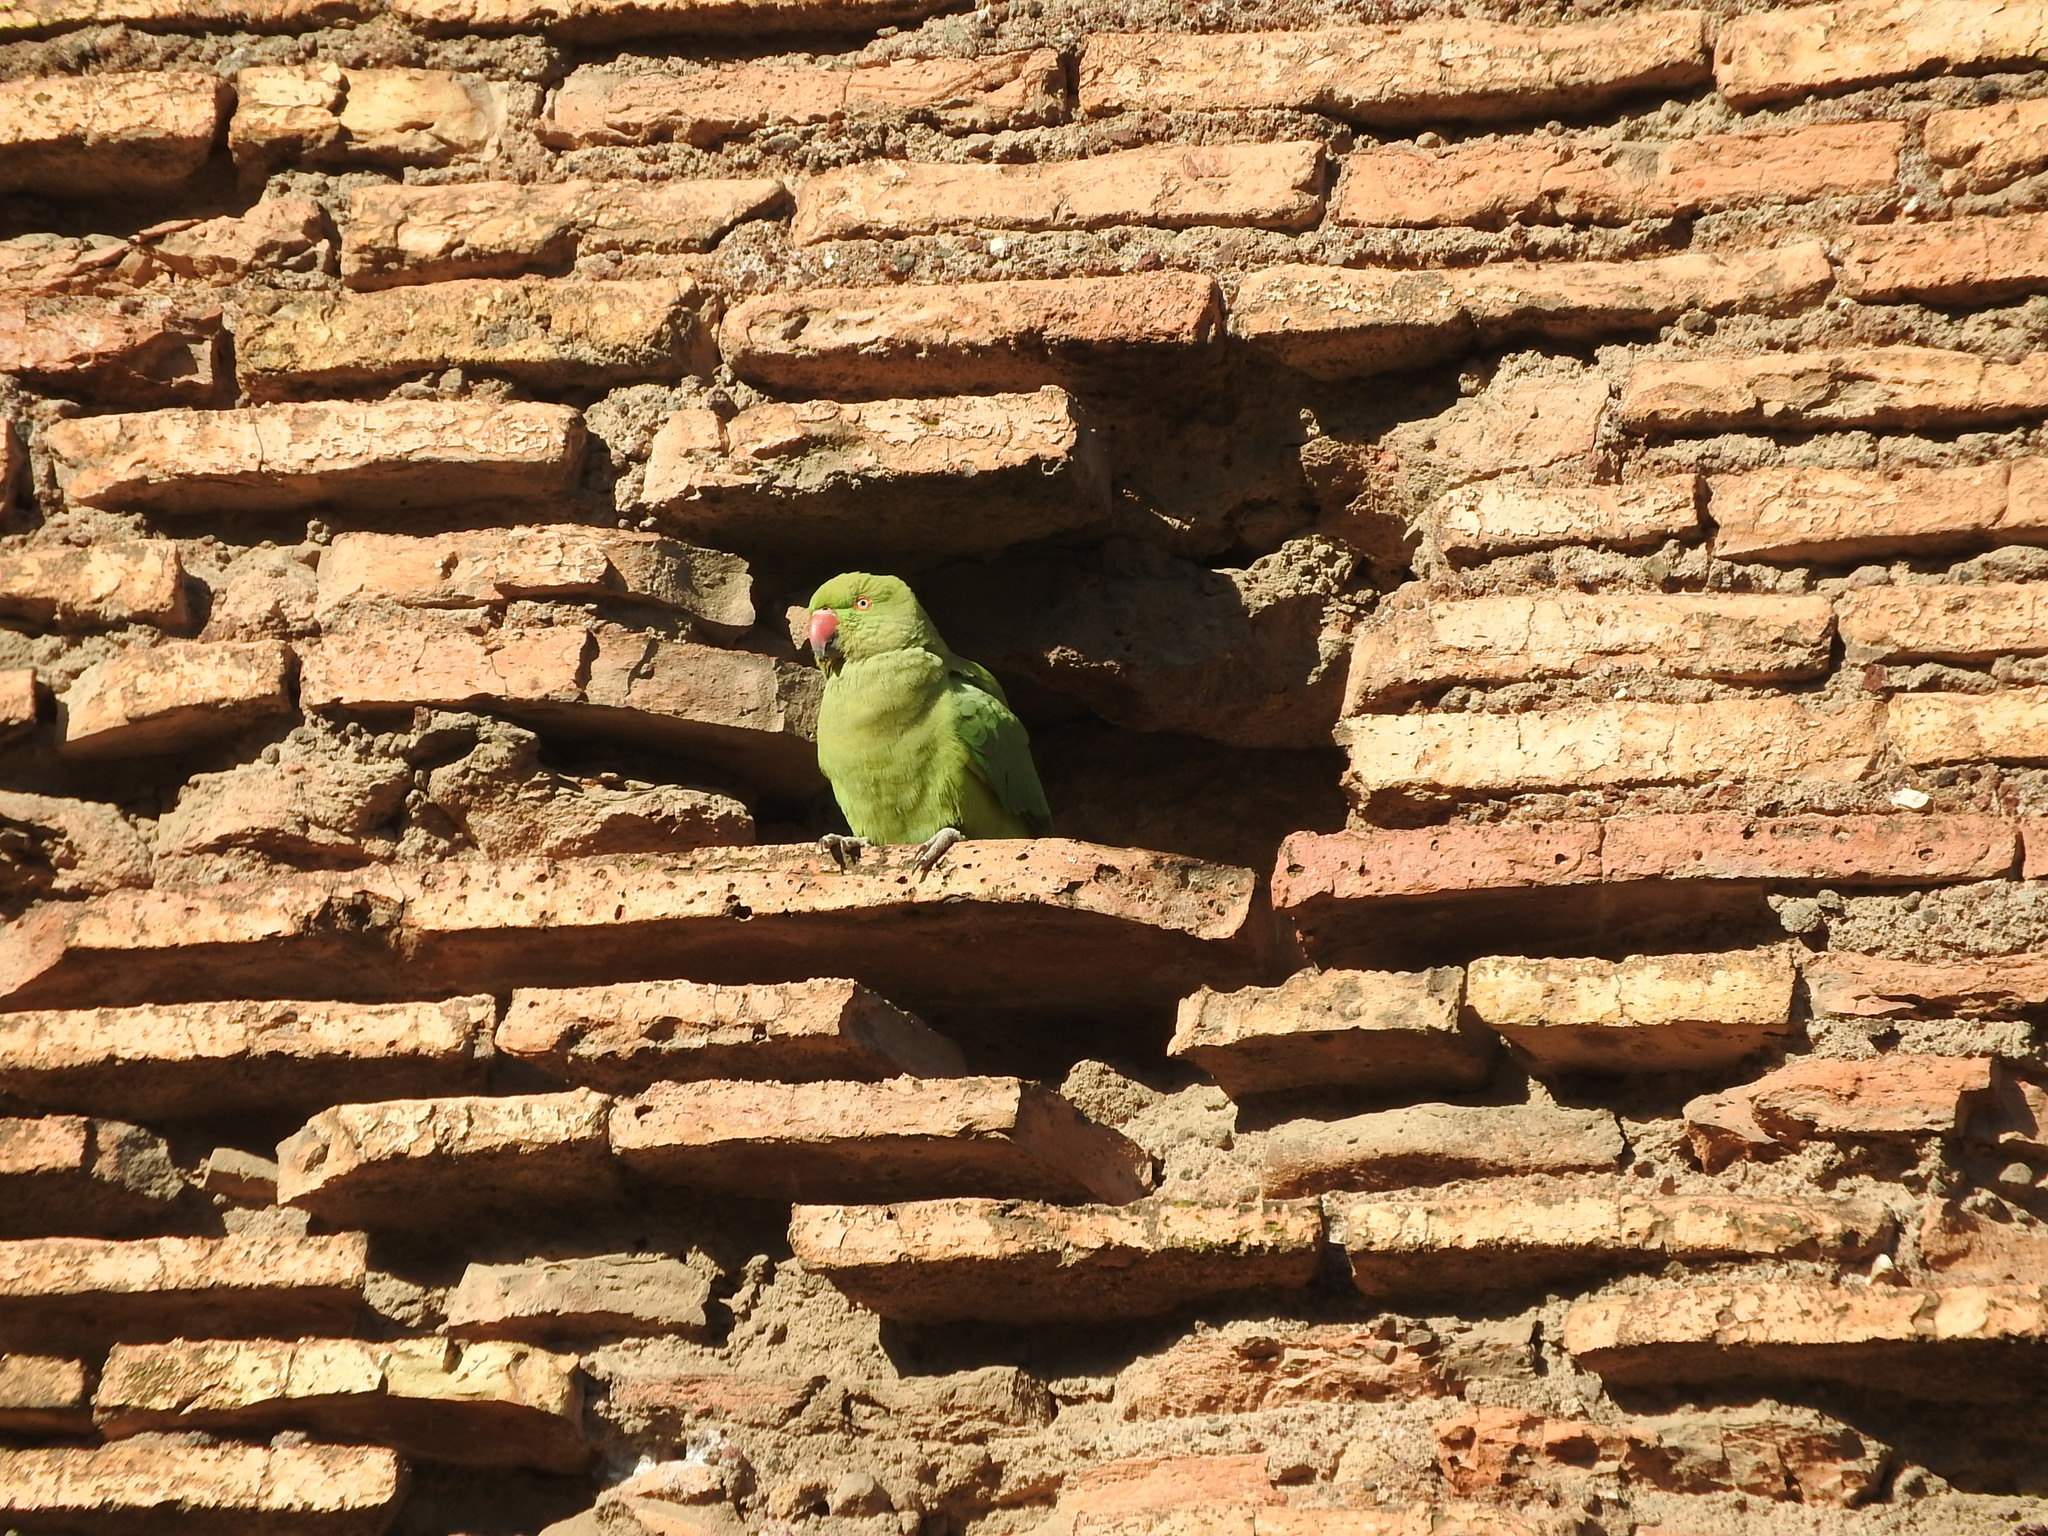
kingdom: Animalia
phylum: Chordata
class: Aves
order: Psittaciformes
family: Psittacidae
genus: Psittacula
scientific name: Psittacula krameri
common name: Rose-ringed parakeet
